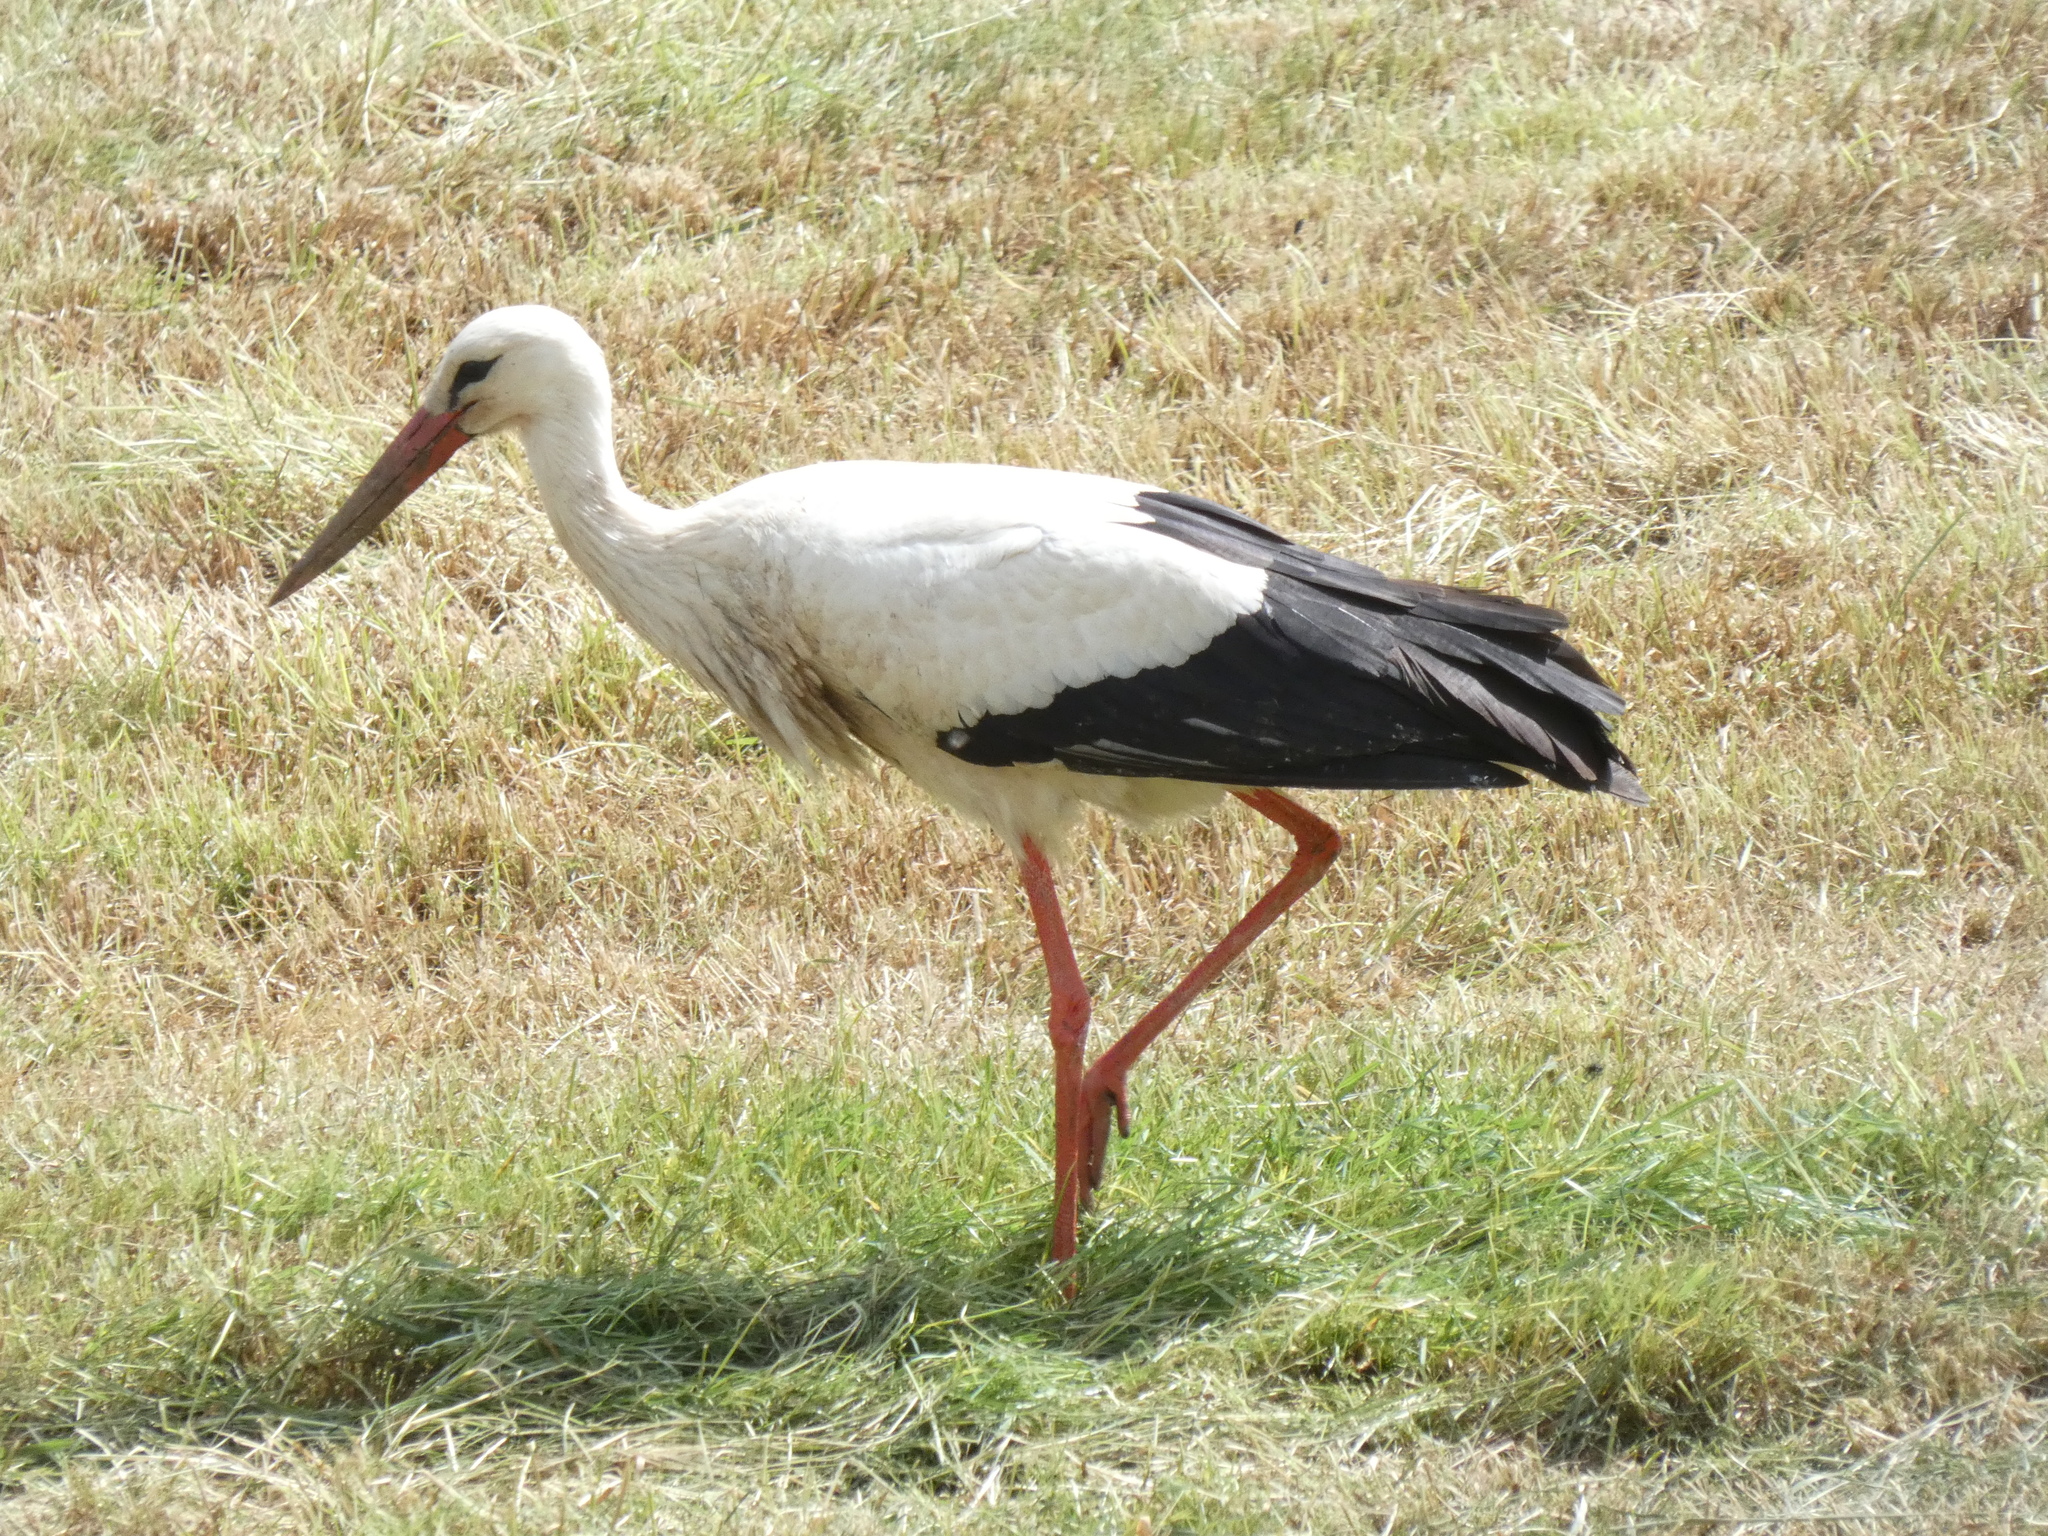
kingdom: Animalia
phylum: Chordata
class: Aves
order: Ciconiiformes
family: Ciconiidae
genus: Ciconia
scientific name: Ciconia ciconia
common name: White stork
